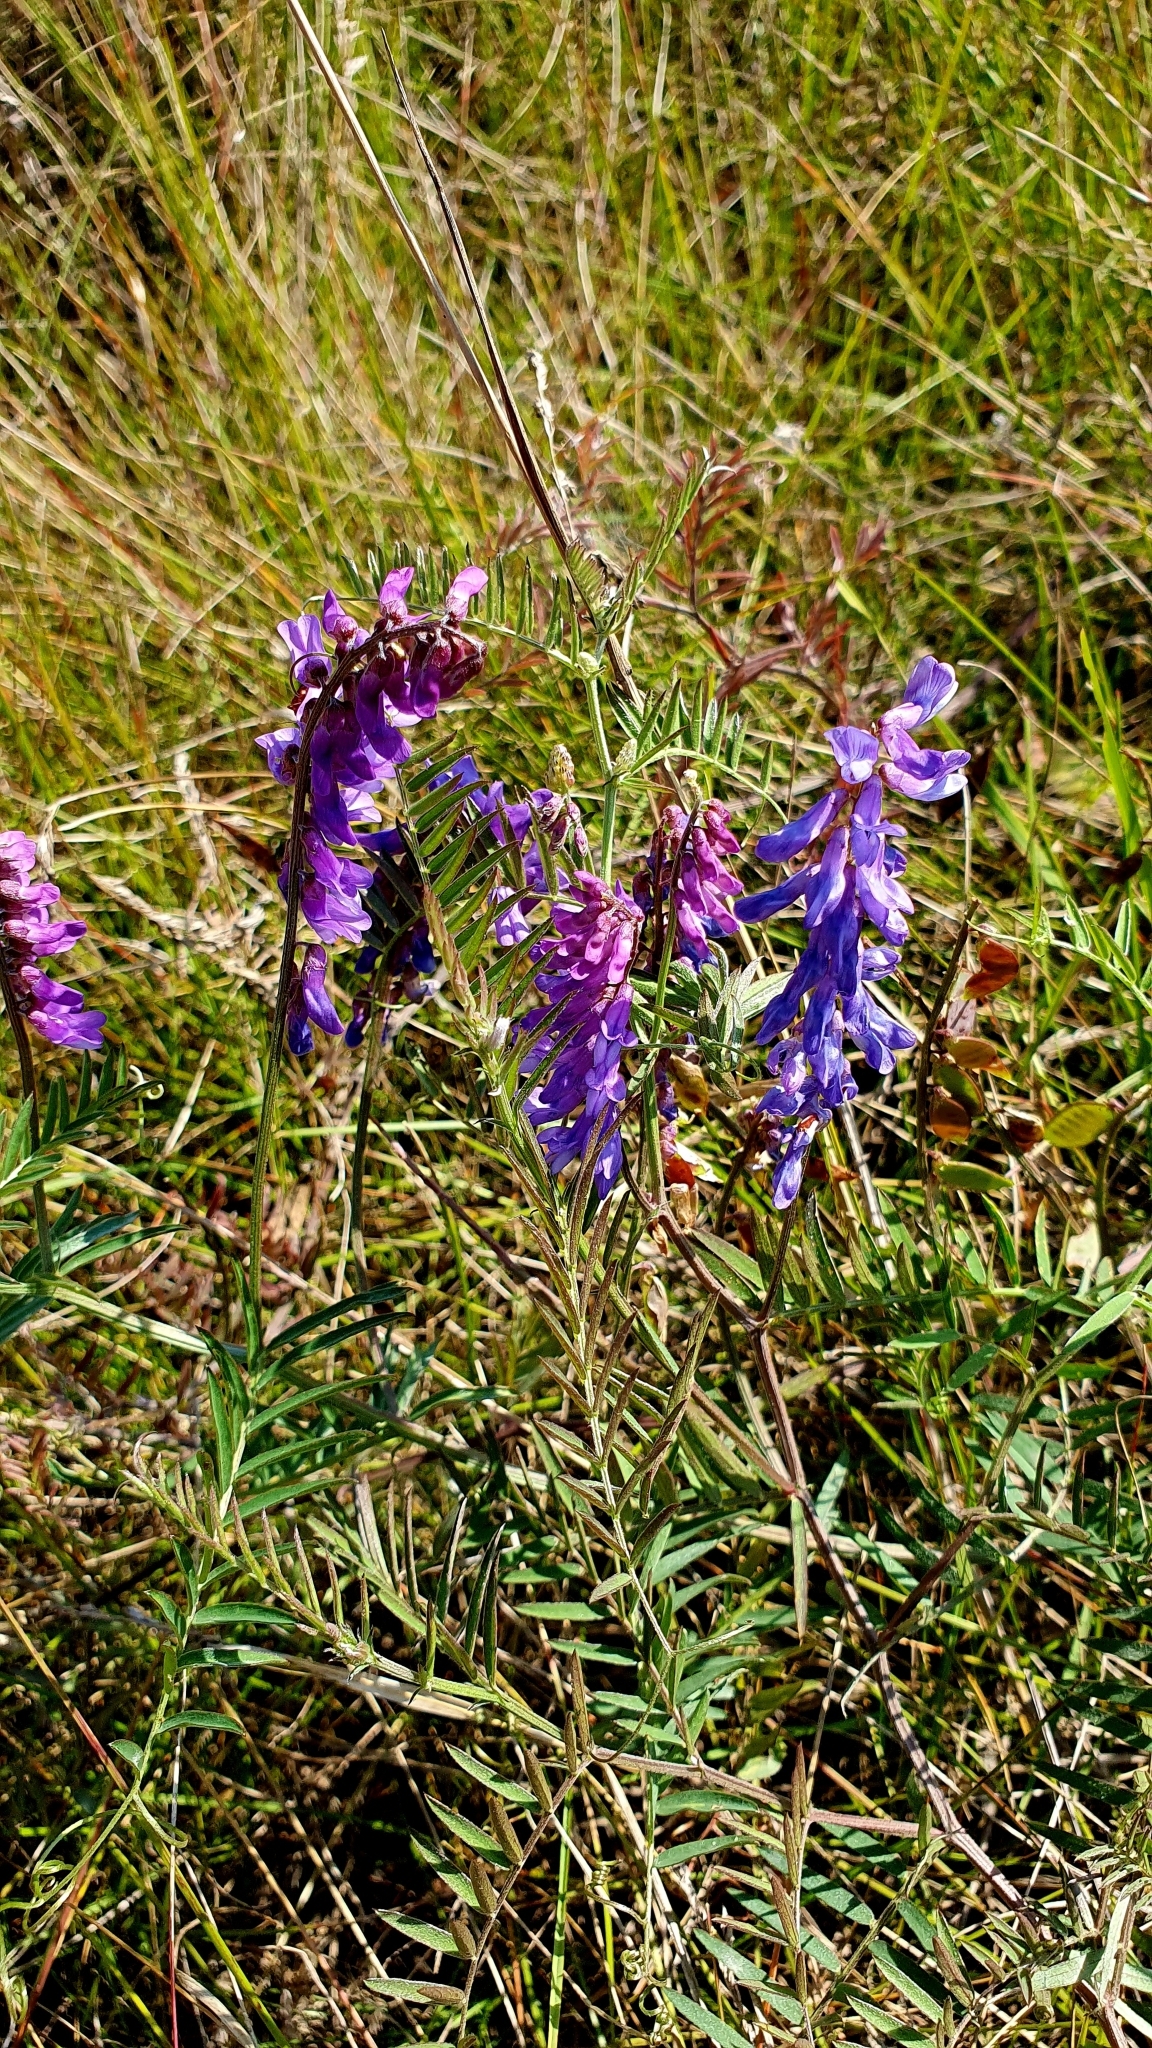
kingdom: Plantae
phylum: Tracheophyta
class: Magnoliopsida
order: Fabales
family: Fabaceae
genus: Vicia
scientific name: Vicia cracca
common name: Bird vetch
